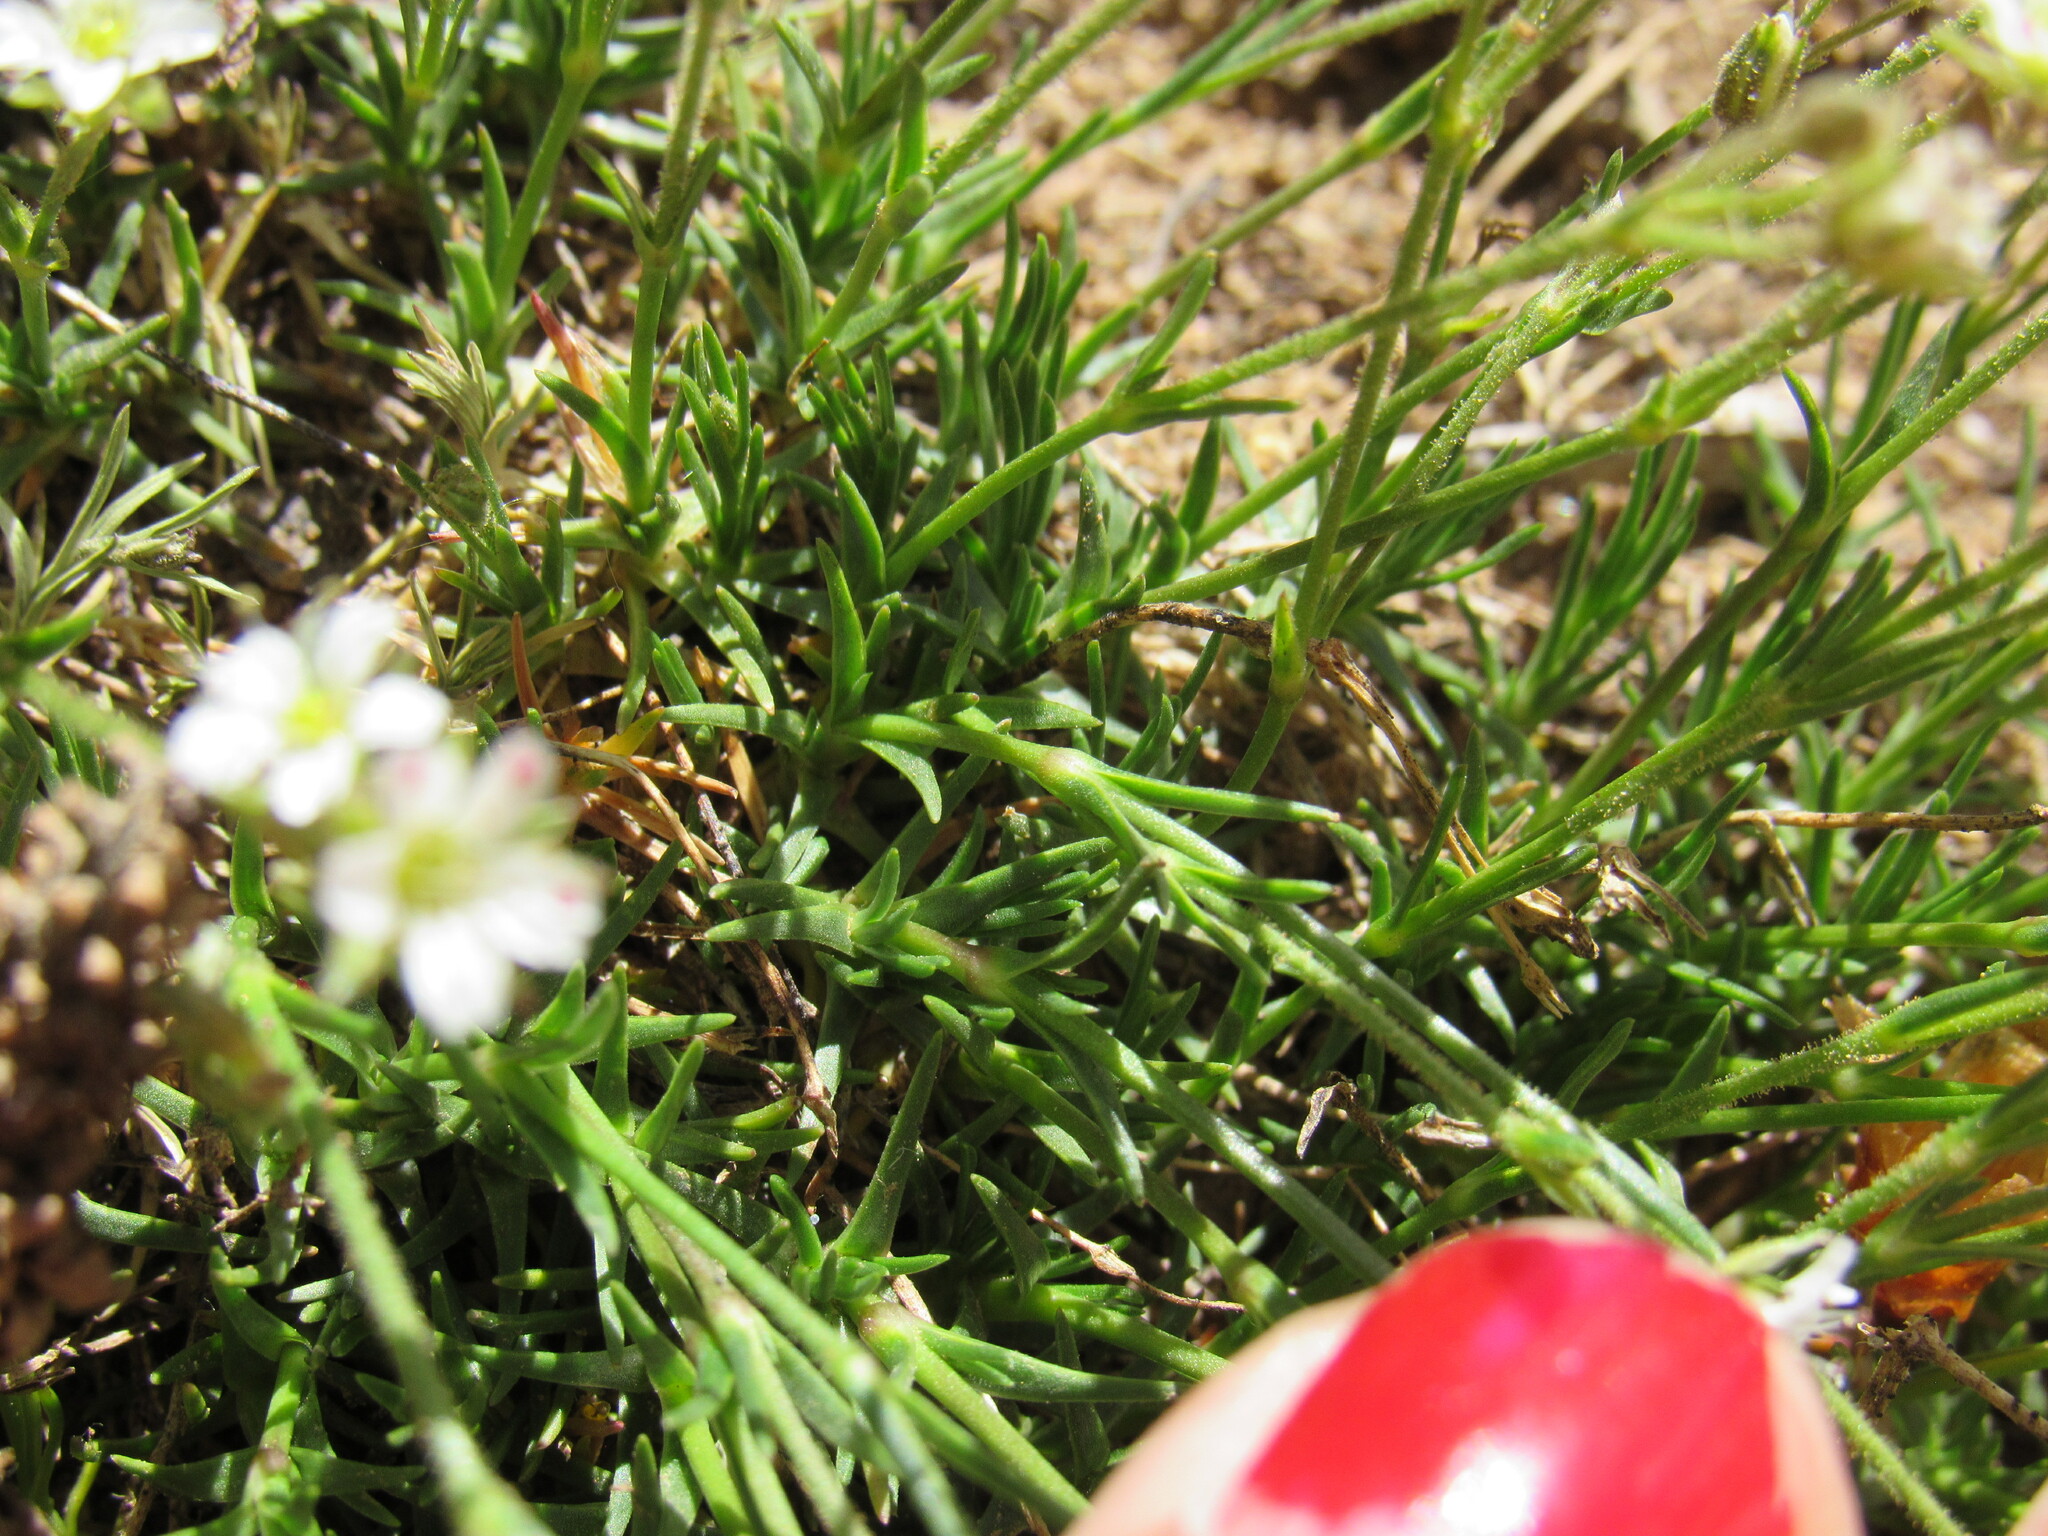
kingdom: Plantae
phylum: Tracheophyta
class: Magnoliopsida
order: Caryophyllales
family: Caryophyllaceae
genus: Eremogone
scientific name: Eremogone fendleri
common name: Fendler's sandwort
